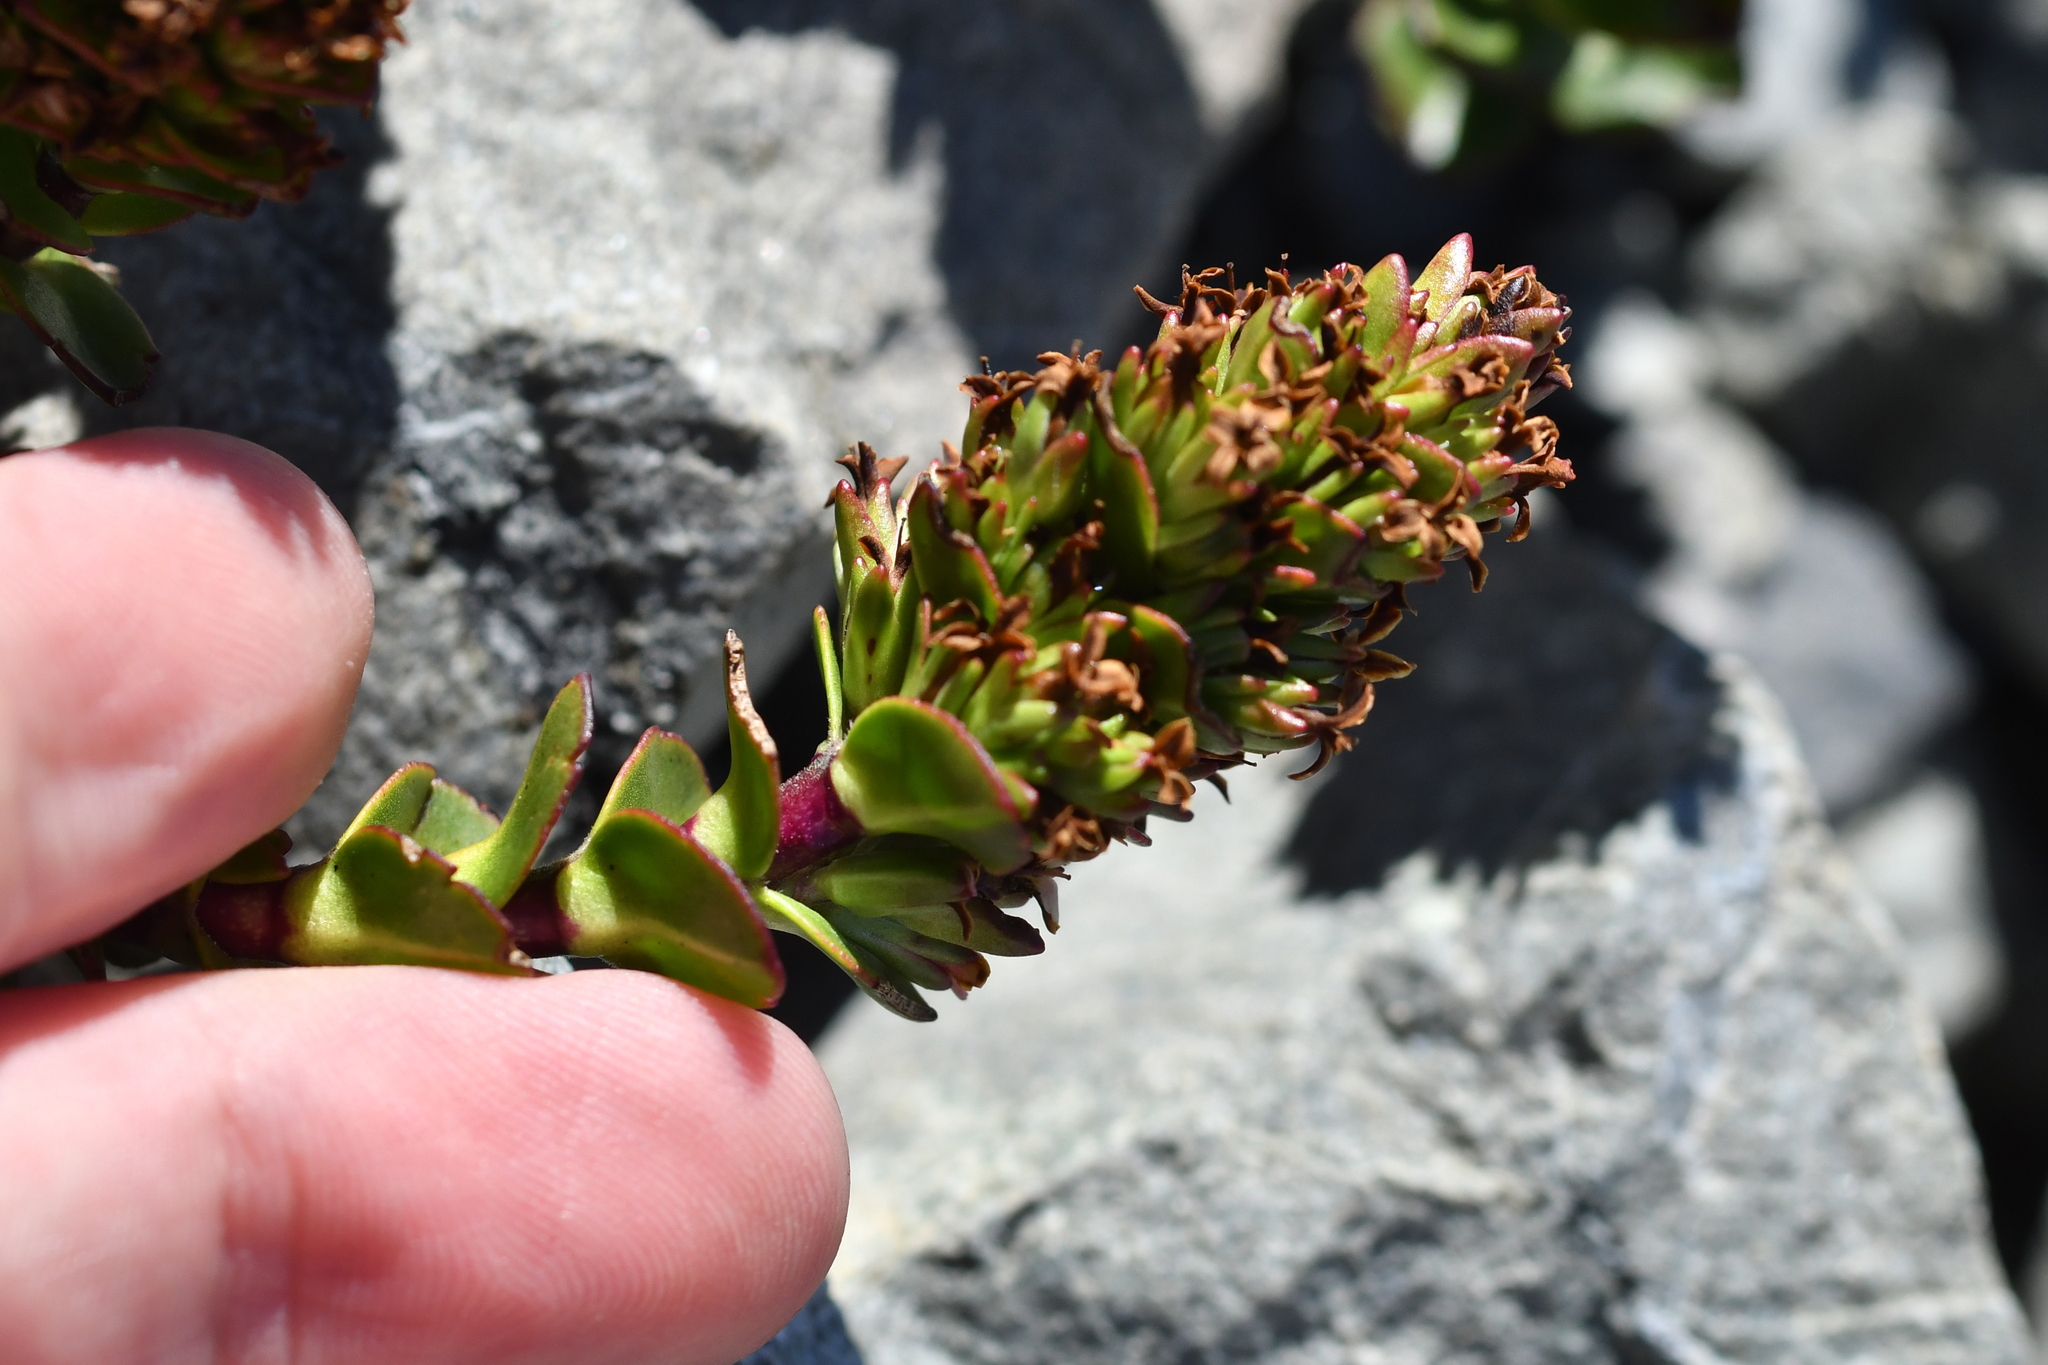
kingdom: Plantae
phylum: Tracheophyta
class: Magnoliopsida
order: Lamiales
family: Plantaginaceae
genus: Veronica
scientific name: Veronica haastii
